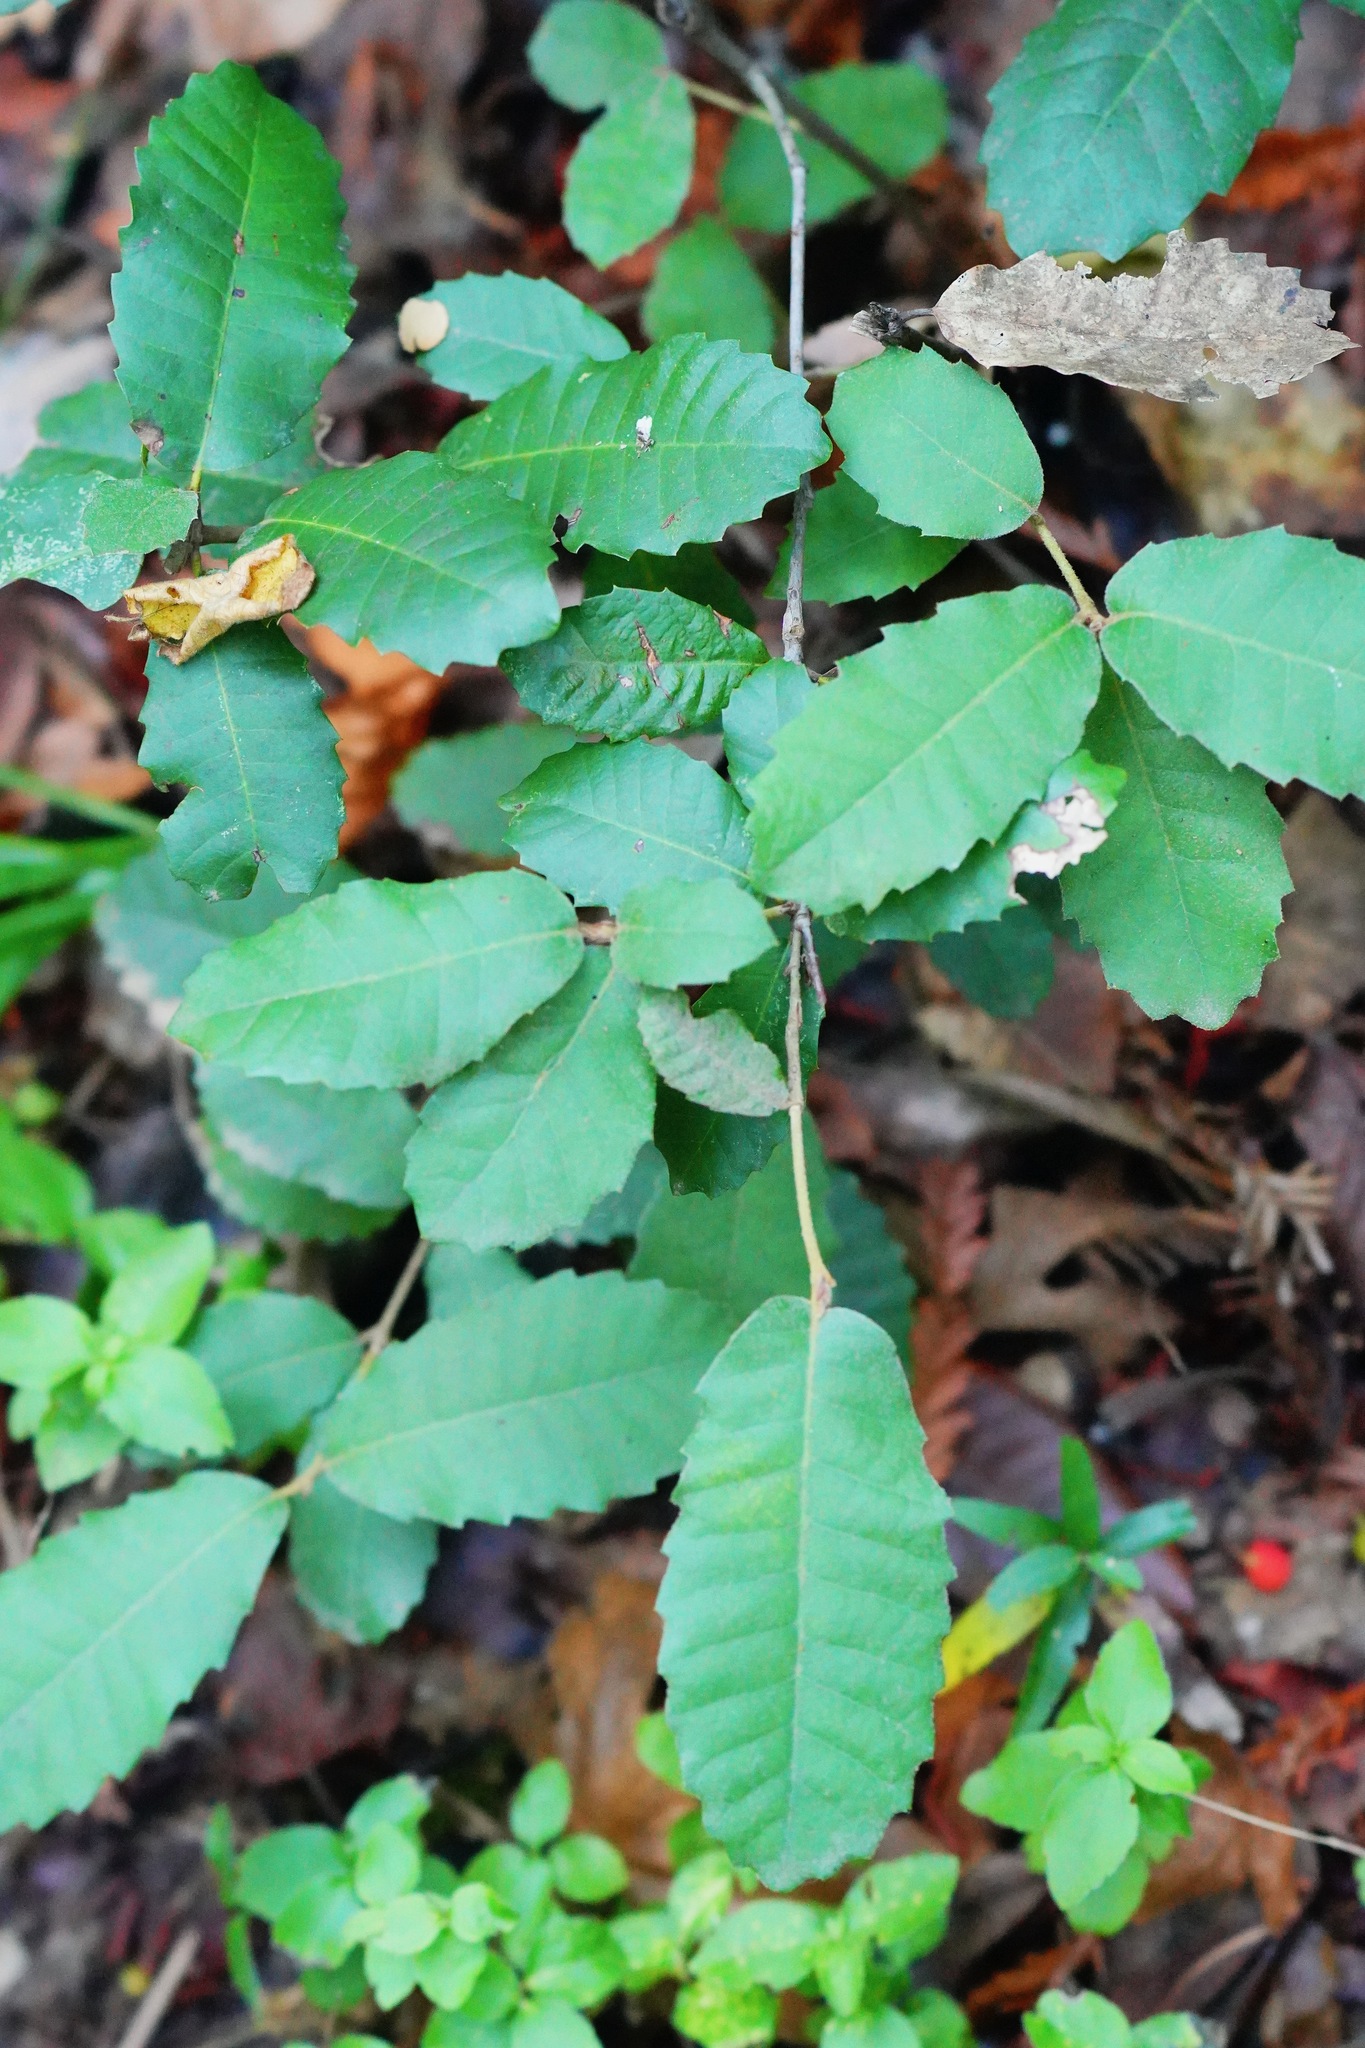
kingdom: Plantae
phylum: Tracheophyta
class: Magnoliopsida
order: Fagales
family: Fagaceae
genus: Notholithocarpus
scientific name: Notholithocarpus densiflorus
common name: Tan bark oak
